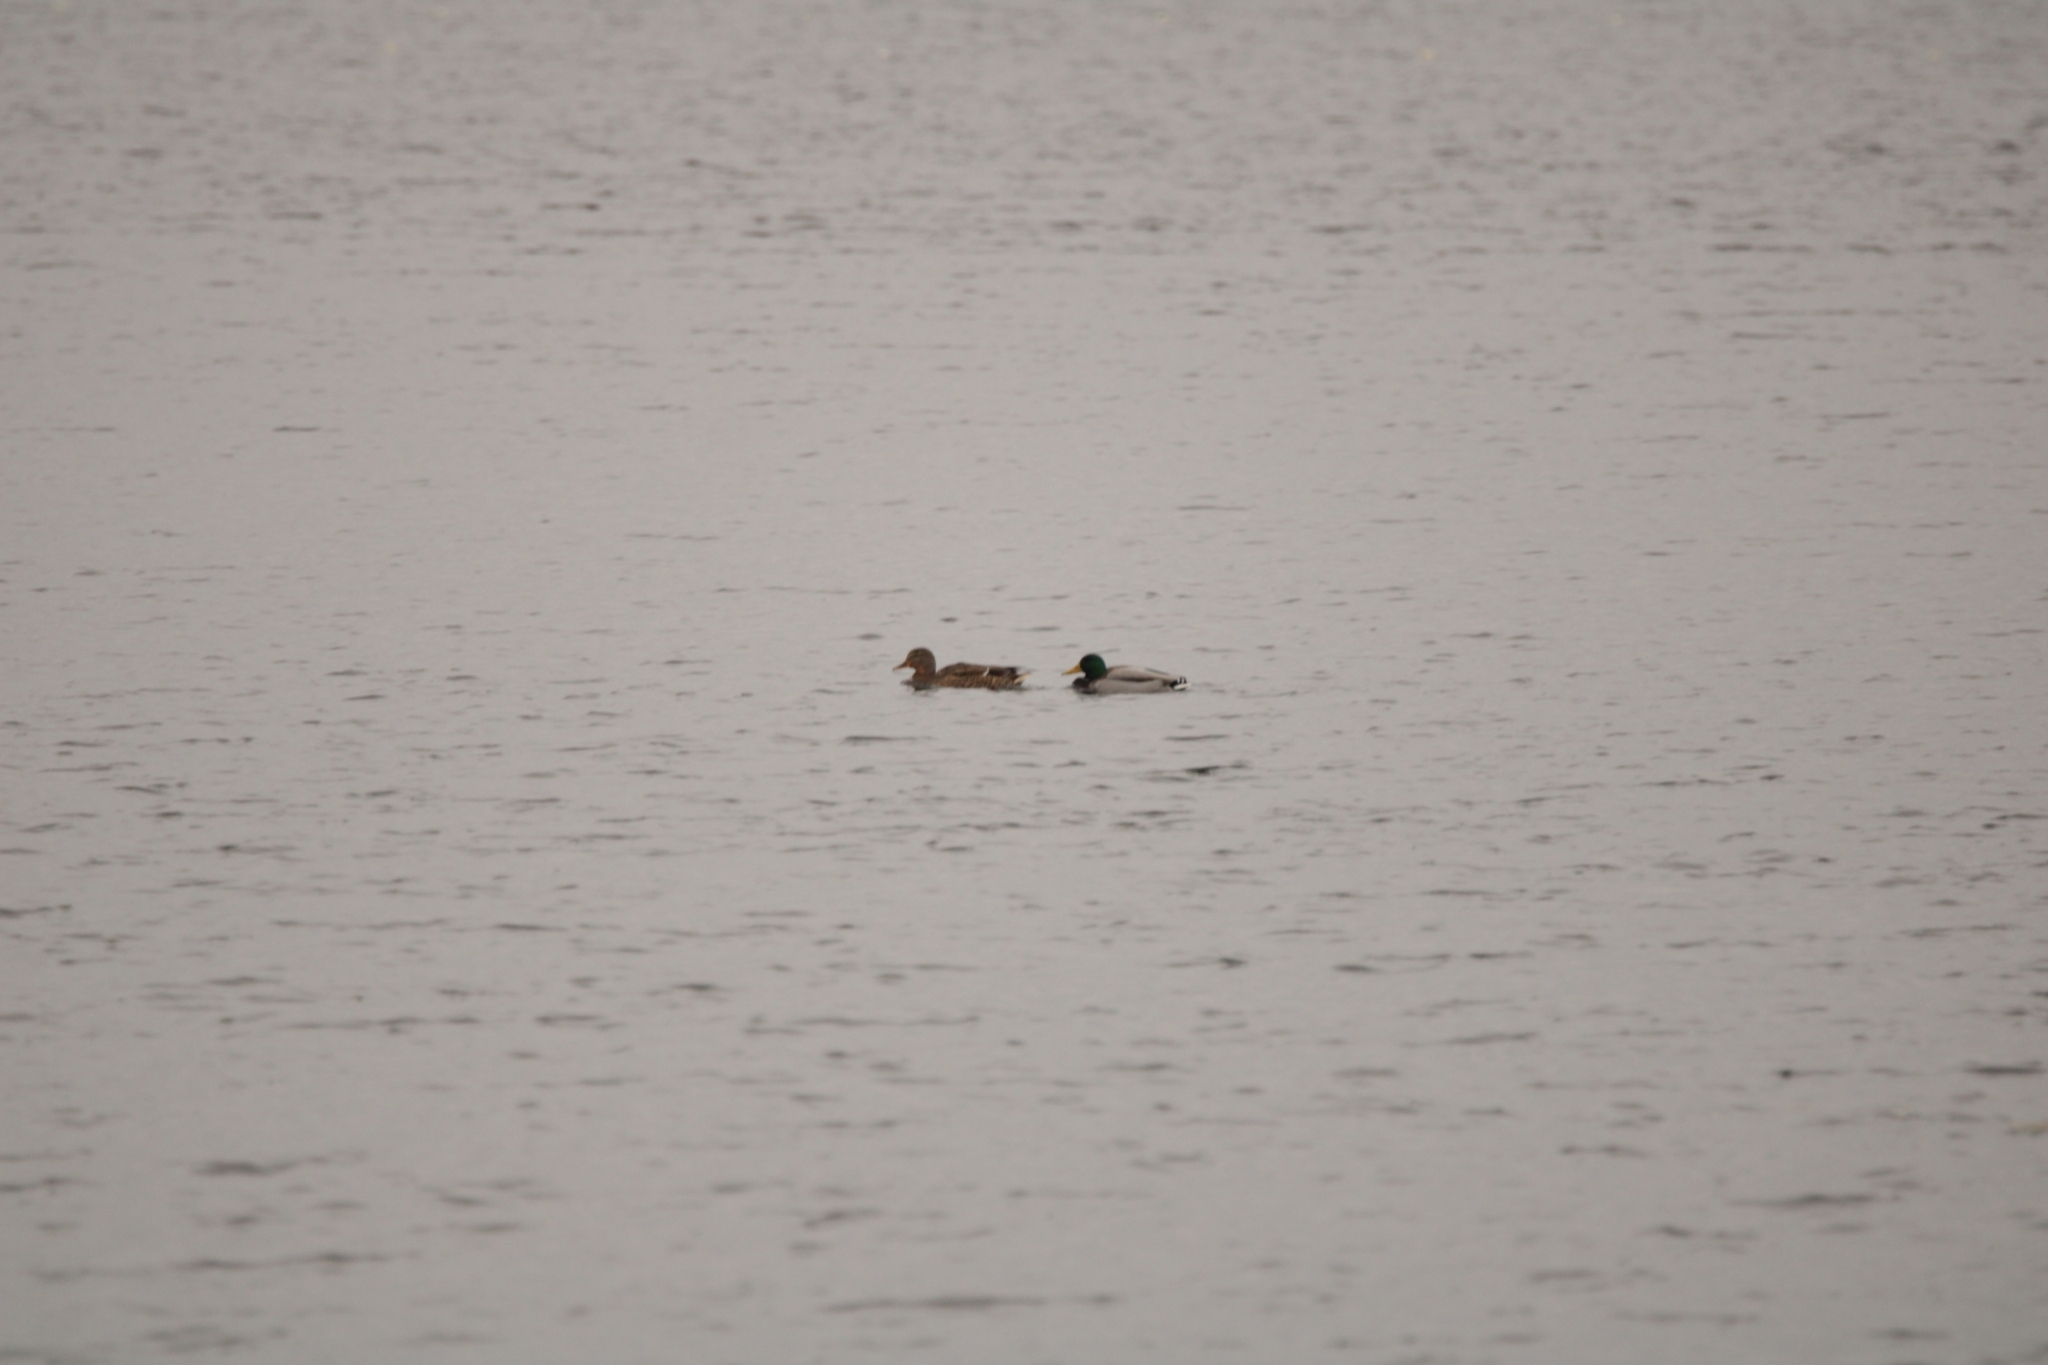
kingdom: Animalia
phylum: Chordata
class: Aves
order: Anseriformes
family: Anatidae
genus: Anas
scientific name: Anas platyrhynchos
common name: Mallard
